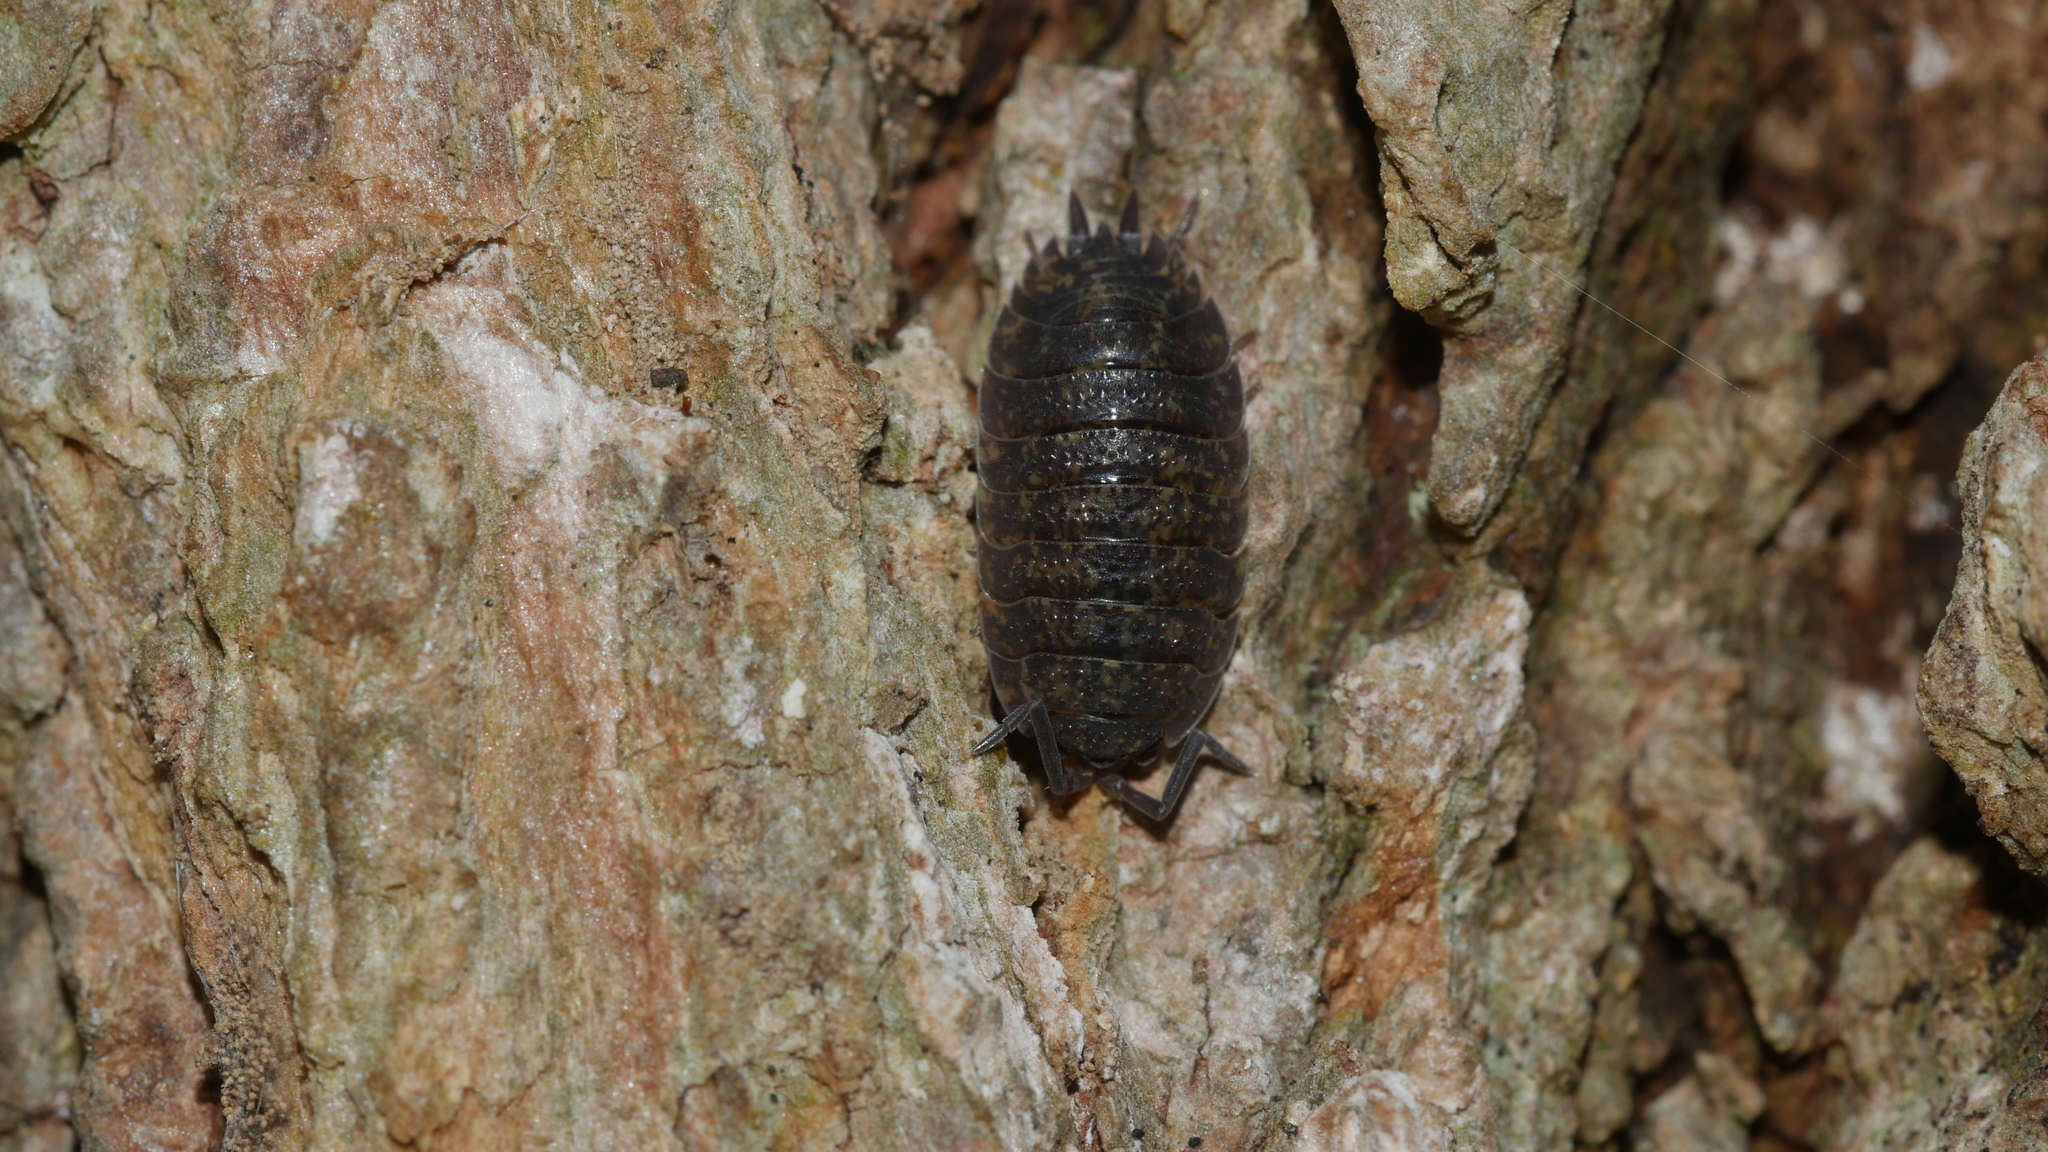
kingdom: Animalia
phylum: Arthropoda
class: Malacostraca
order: Isopoda
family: Porcellionidae
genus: Porcellio
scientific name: Porcellio scaber
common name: Common rough woodlouse
